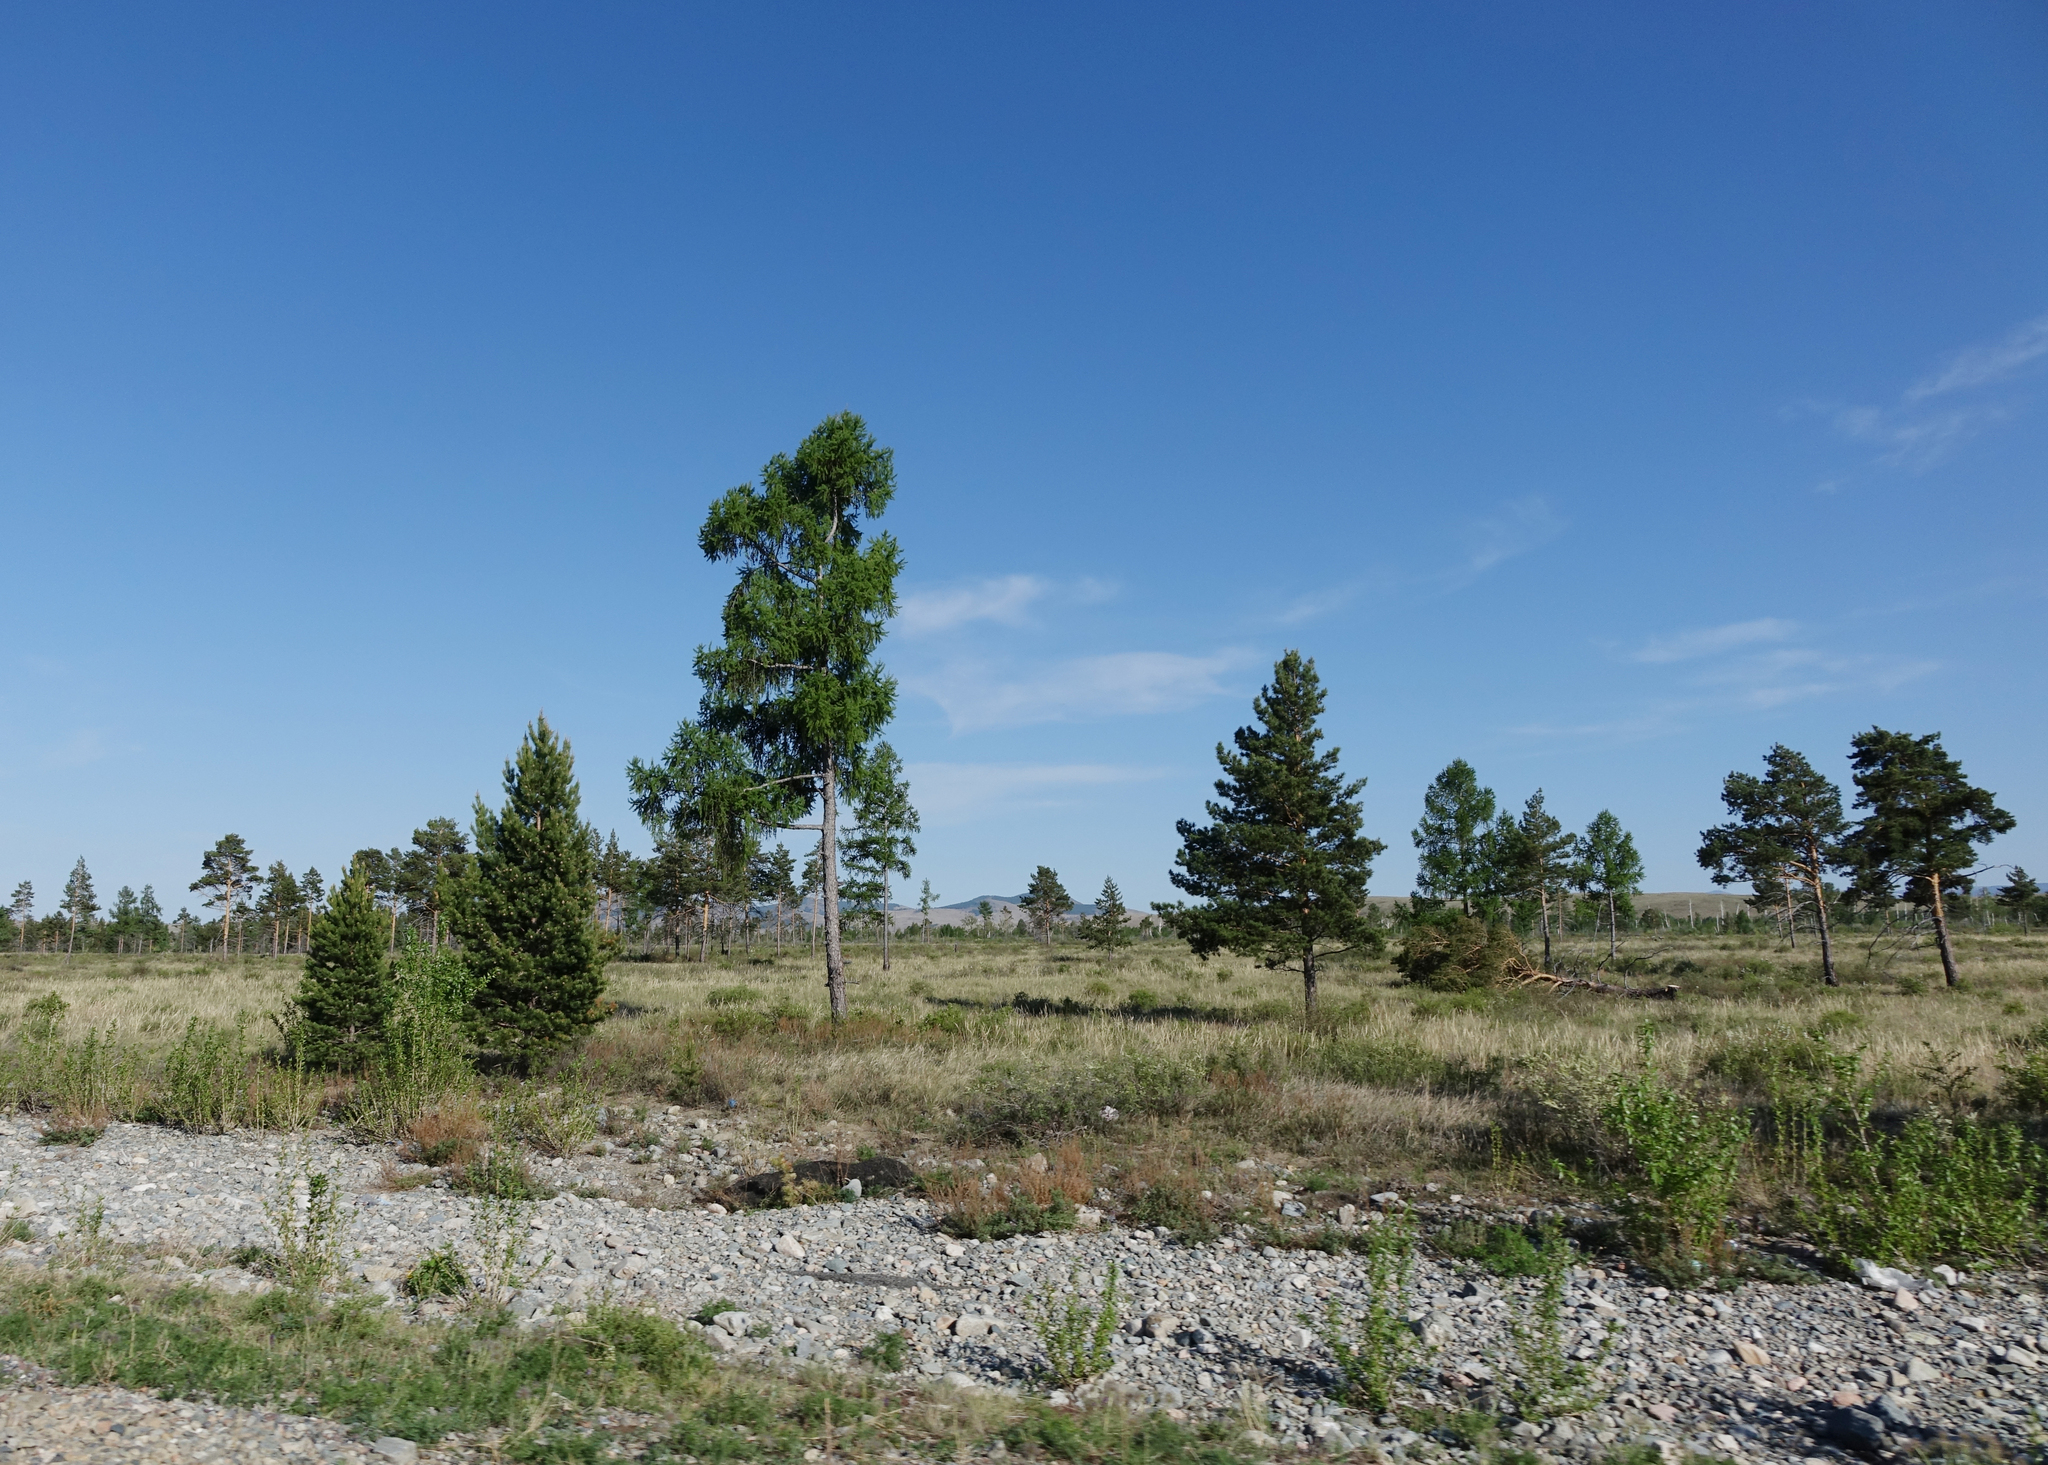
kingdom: Plantae
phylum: Tracheophyta
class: Pinopsida
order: Pinales
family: Pinaceae
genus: Larix
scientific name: Larix sibirica
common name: Siberian larch
